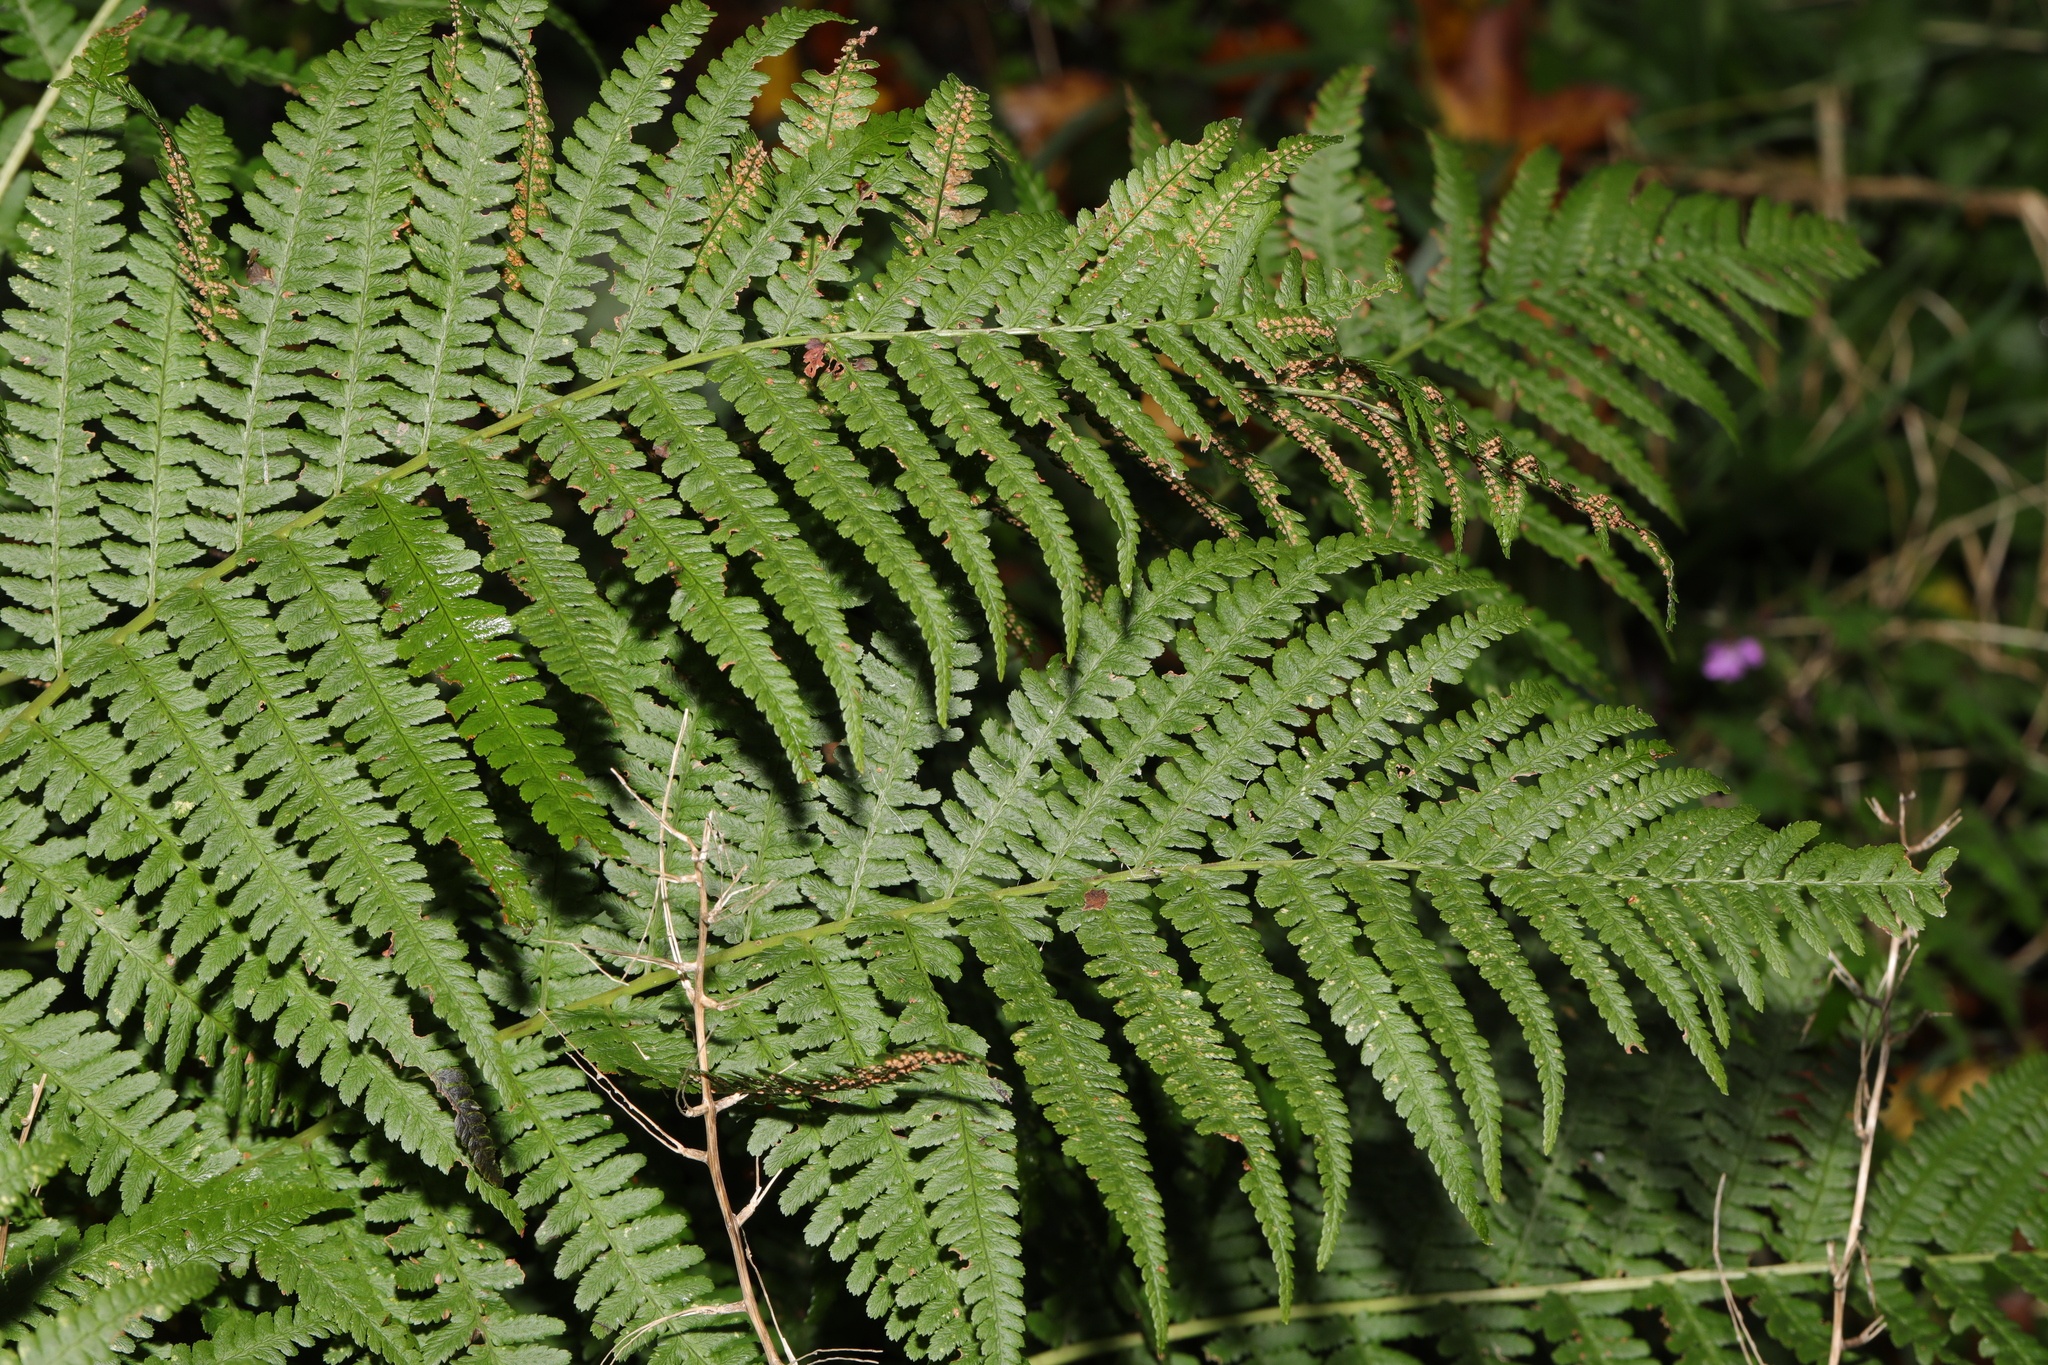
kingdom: Plantae
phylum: Tracheophyta
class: Polypodiopsida
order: Polypodiales
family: Dryopteridaceae
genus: Dryopteris
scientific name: Dryopteris filix-mas
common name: Male fern
